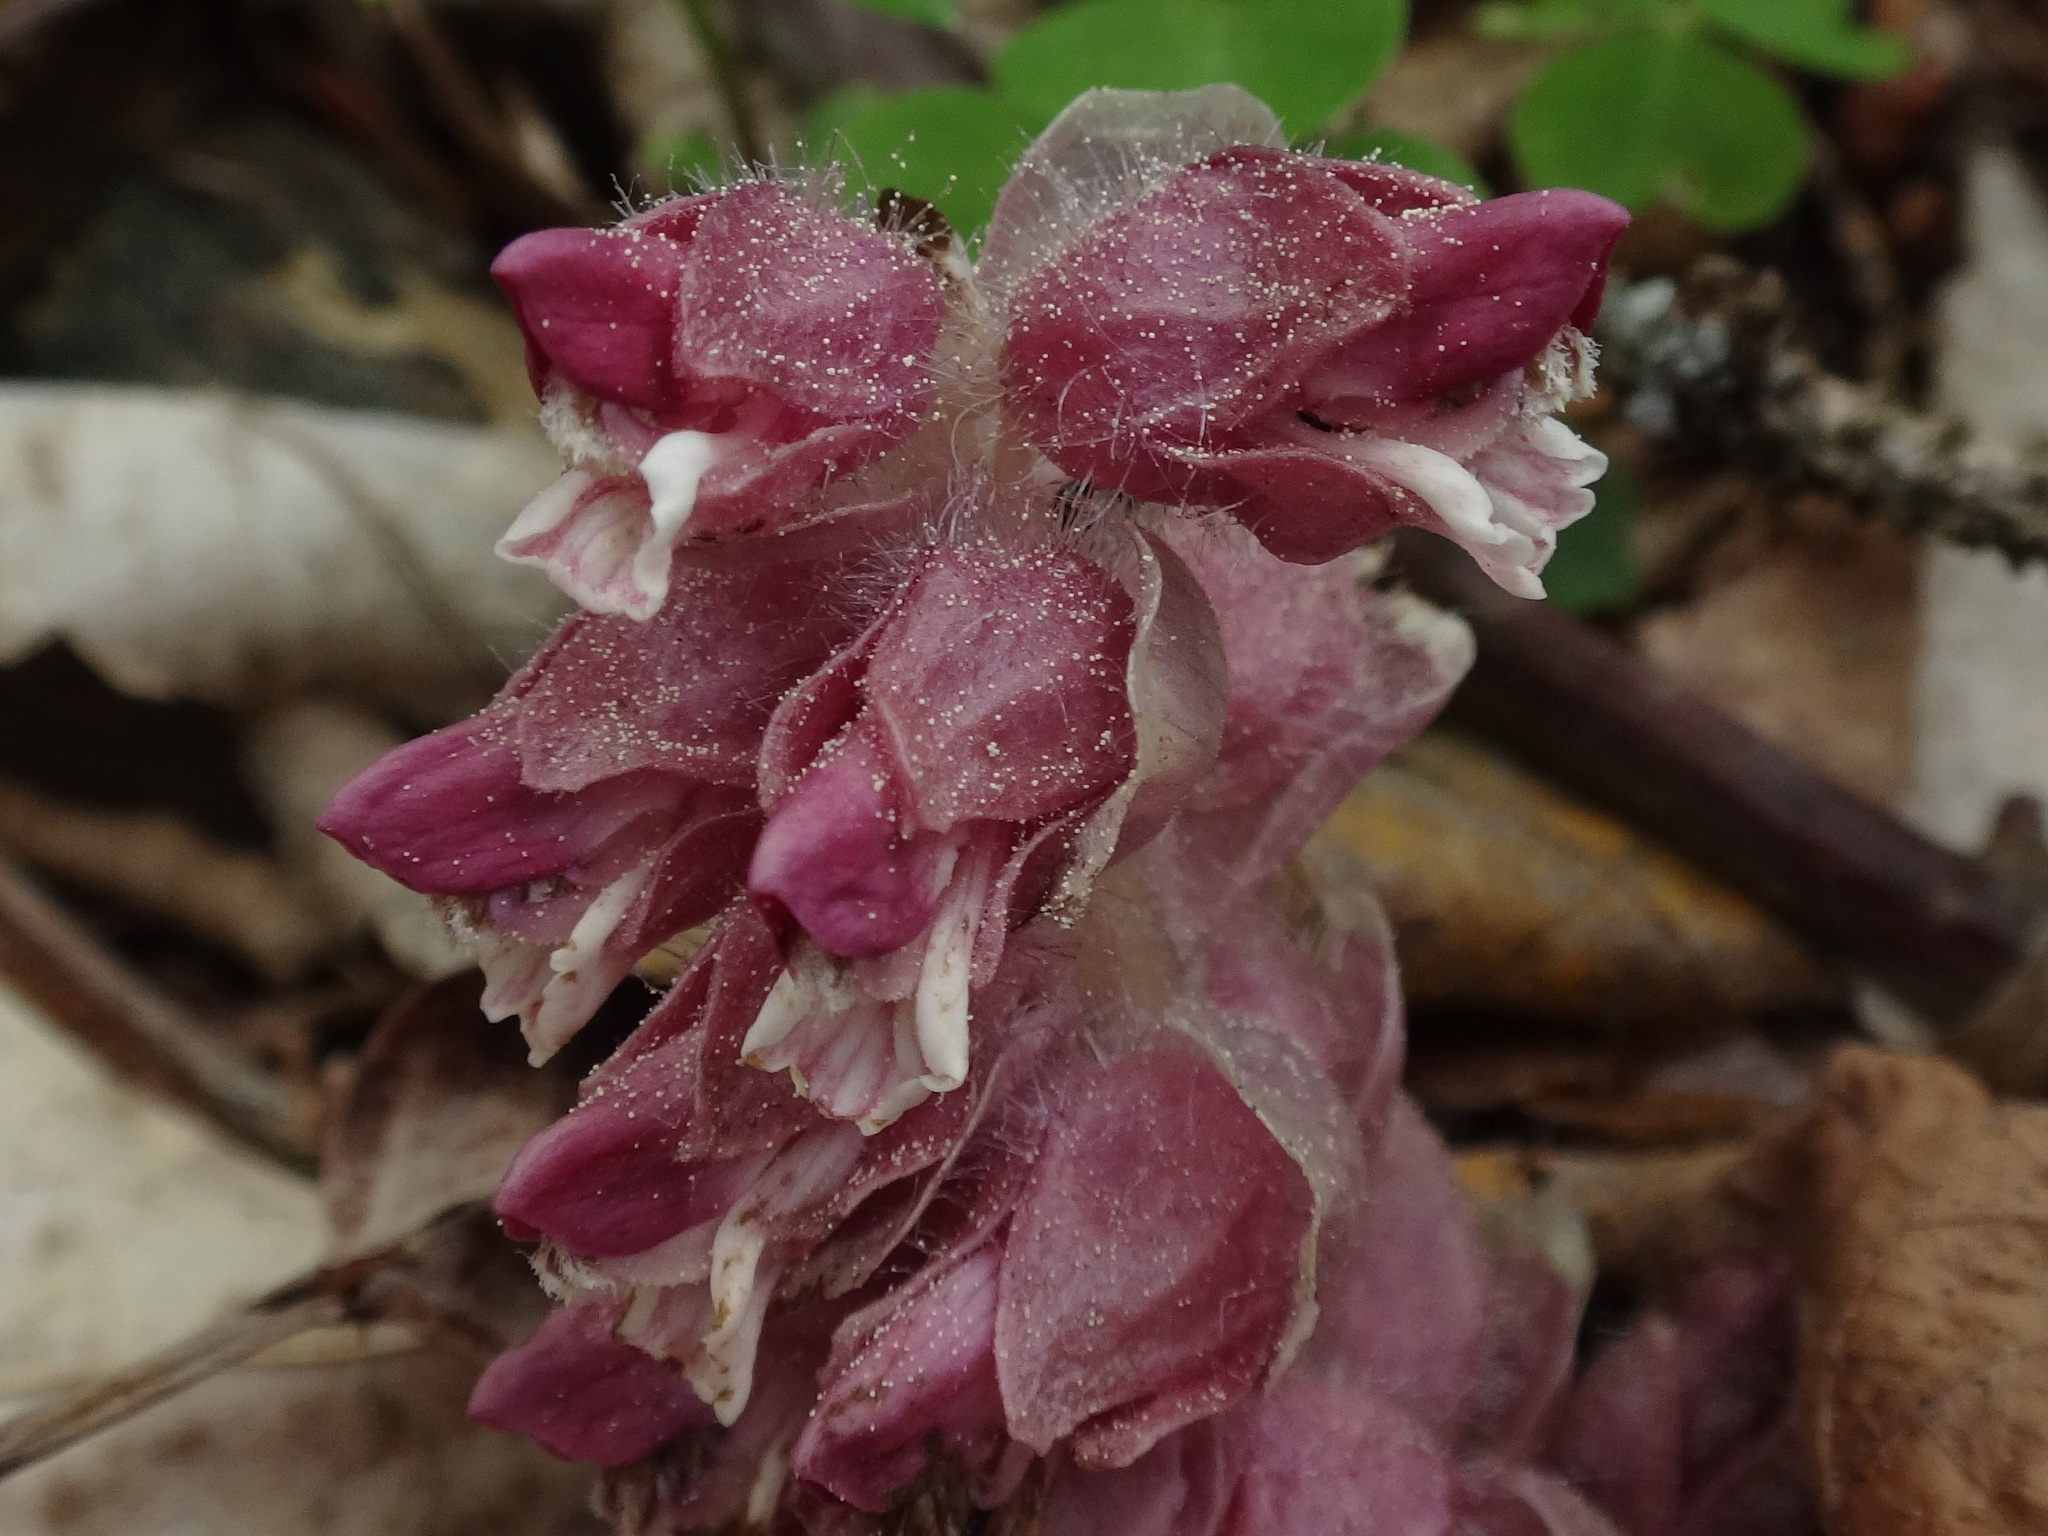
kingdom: Plantae
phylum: Tracheophyta
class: Magnoliopsida
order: Lamiales
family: Orobanchaceae
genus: Lathraea
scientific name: Lathraea squamaria
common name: Toothwort
